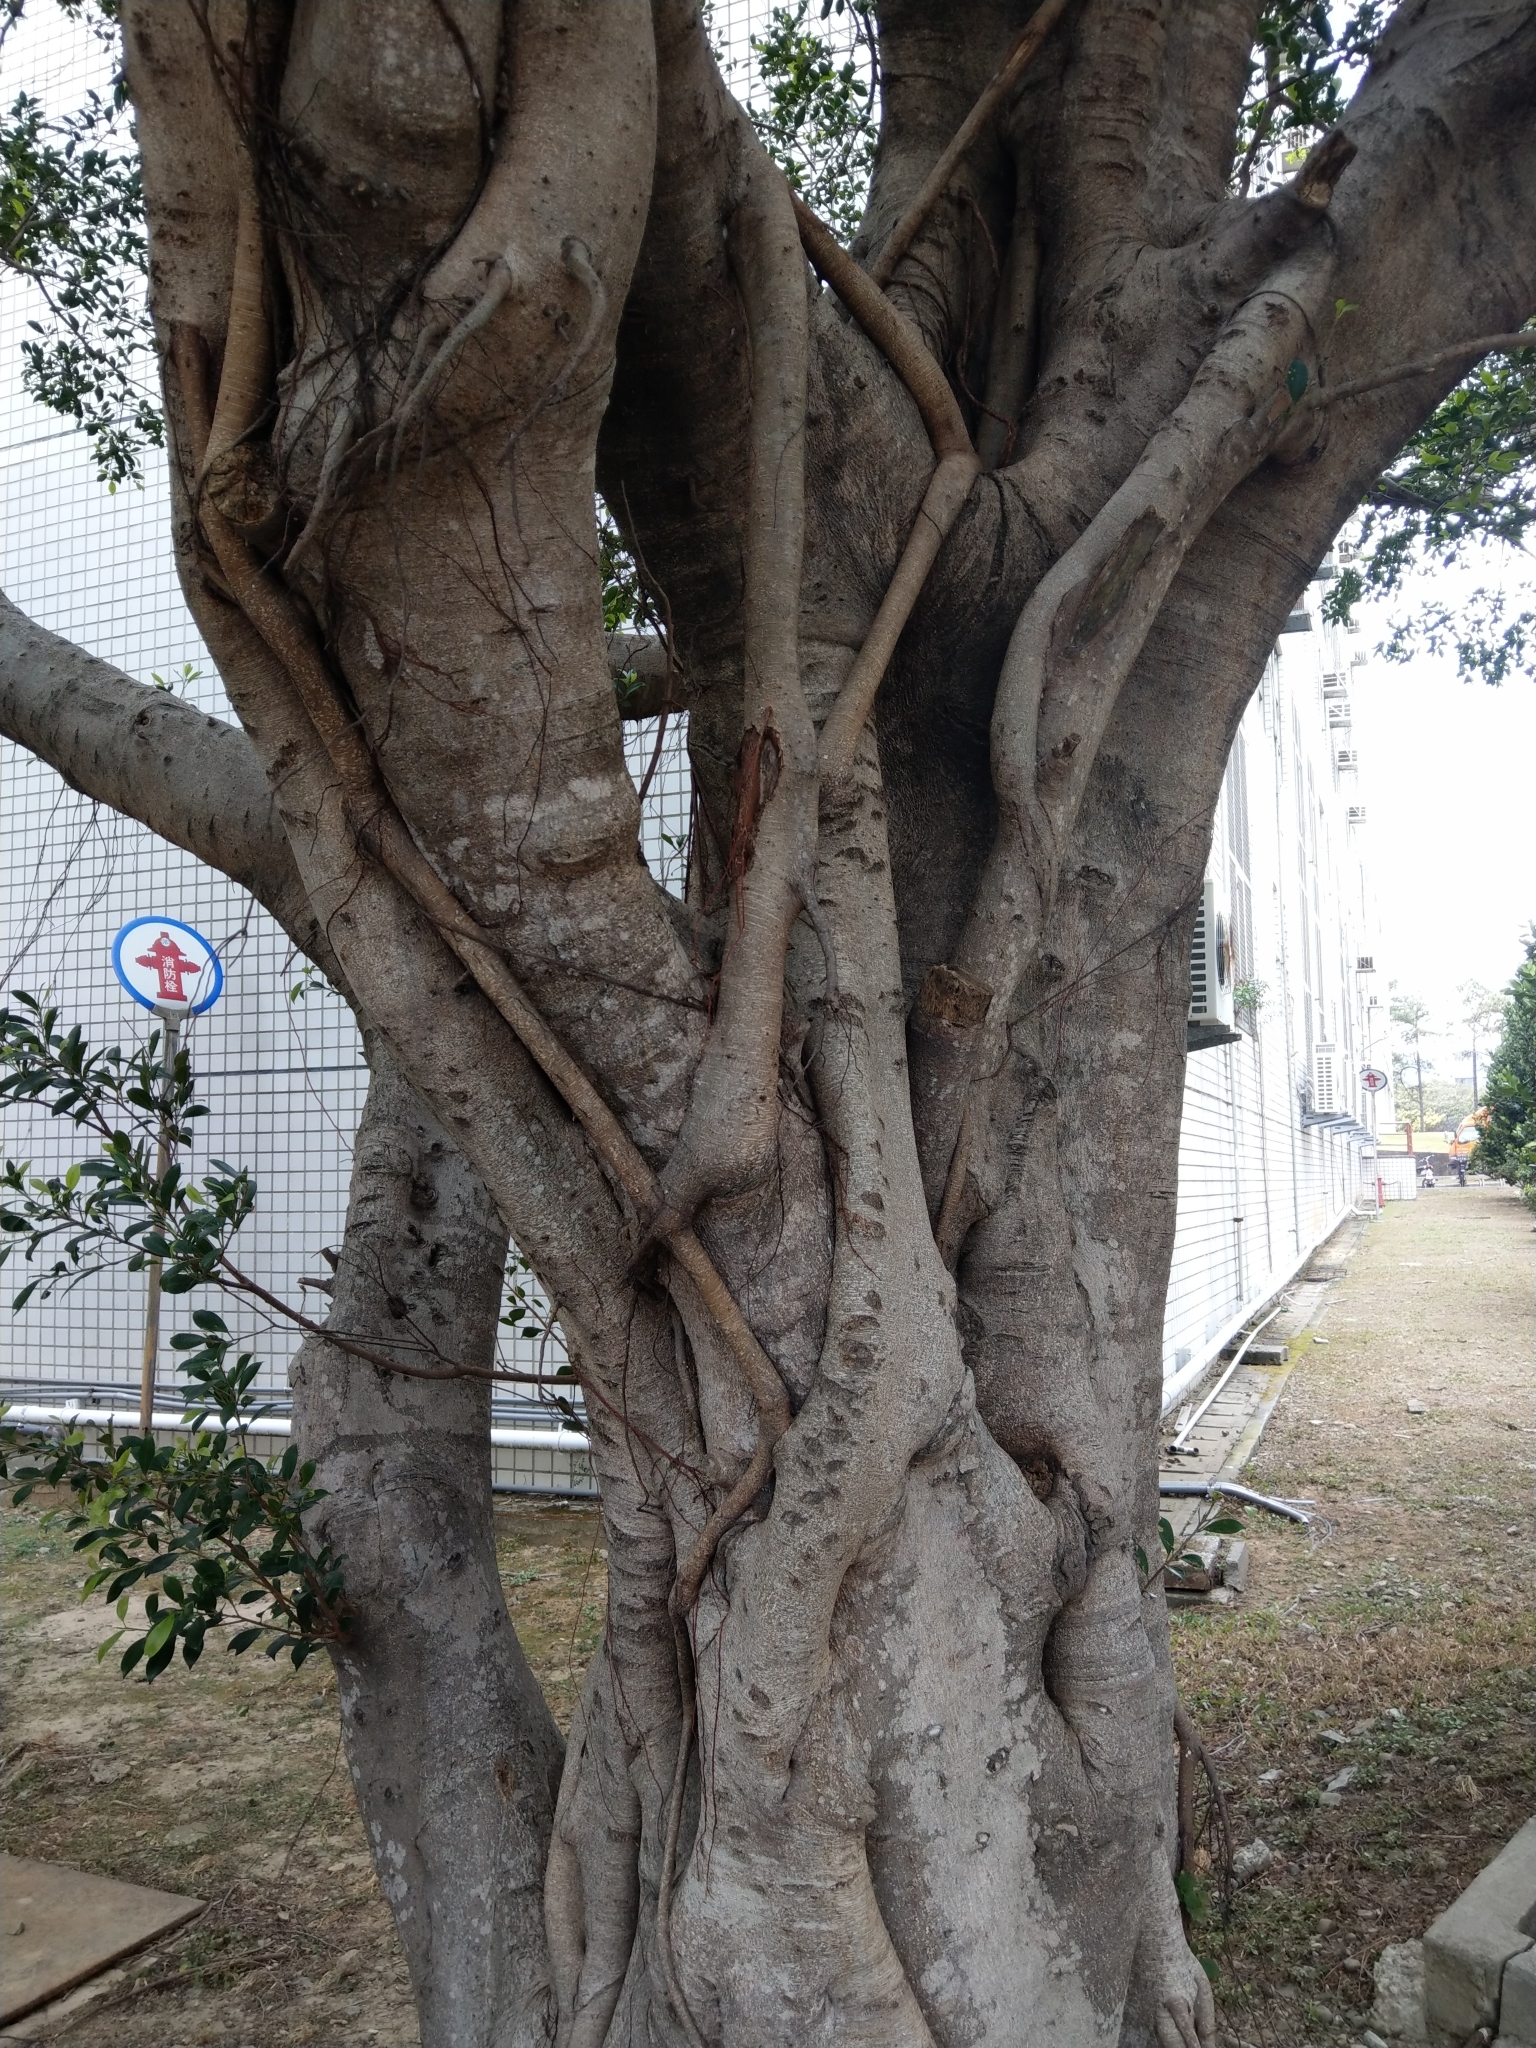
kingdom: Plantae
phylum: Tracheophyta
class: Magnoliopsida
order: Rosales
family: Moraceae
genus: Ficus
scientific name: Ficus microcarpa
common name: Chinese banyan
